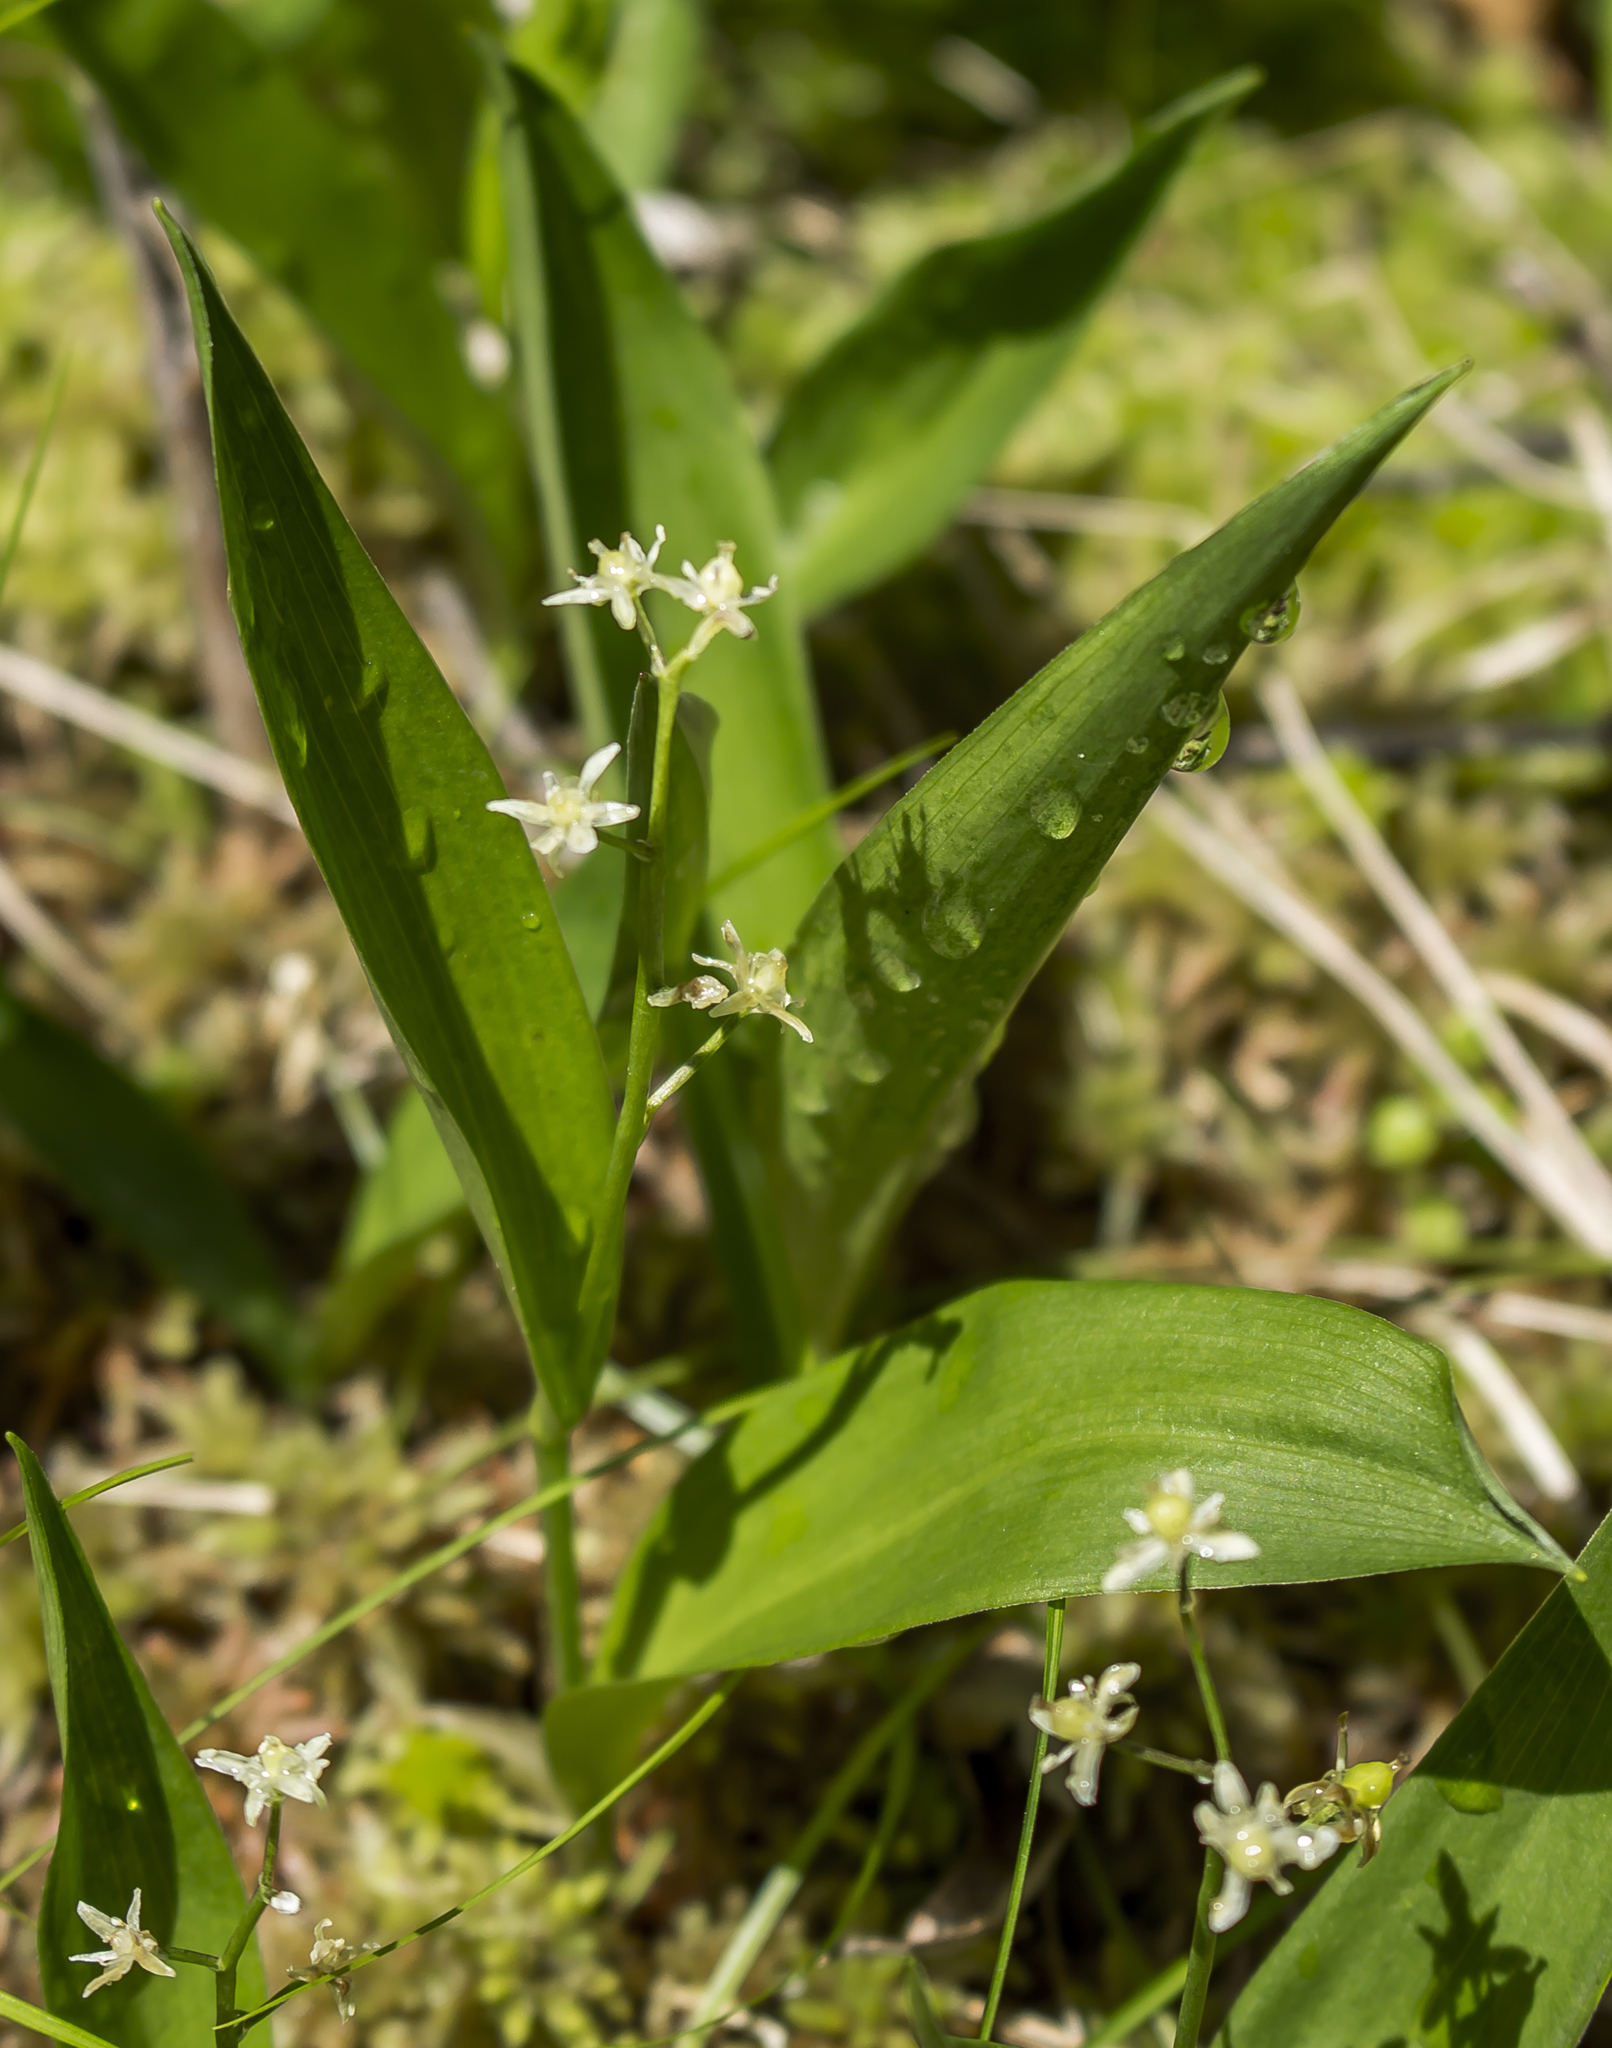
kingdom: Plantae
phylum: Tracheophyta
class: Liliopsida
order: Asparagales
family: Asparagaceae
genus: Maianthemum
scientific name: Maianthemum trifolium
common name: Swamp false solomon's seal
